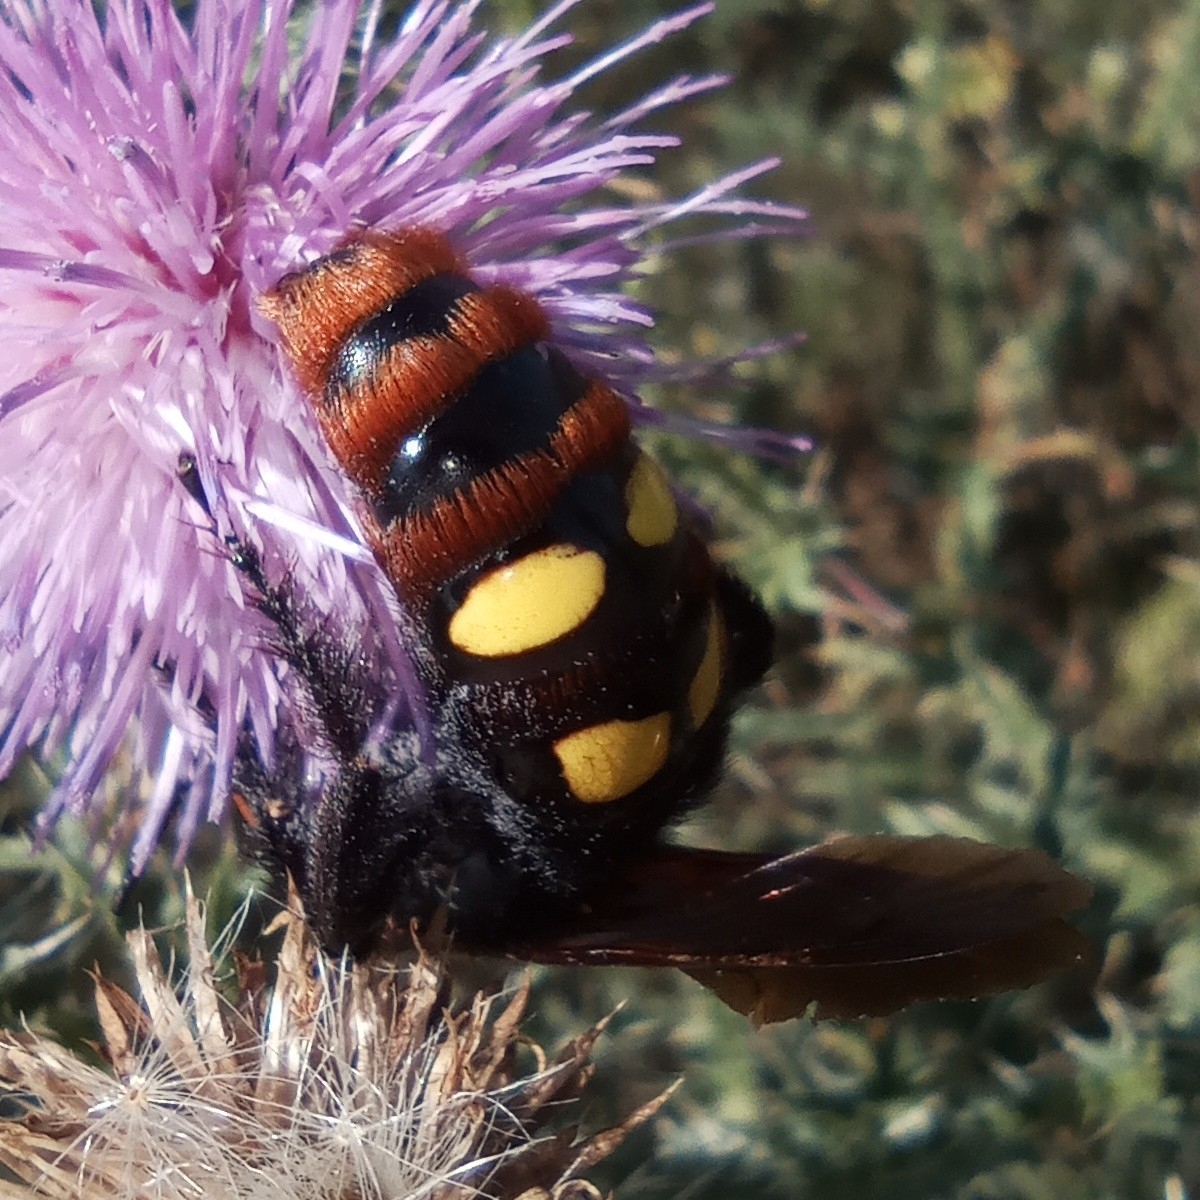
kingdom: Animalia
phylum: Arthropoda
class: Insecta
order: Hymenoptera
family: Scoliidae
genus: Megascolia
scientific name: Megascolia maculata
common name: Mammoth wasp
